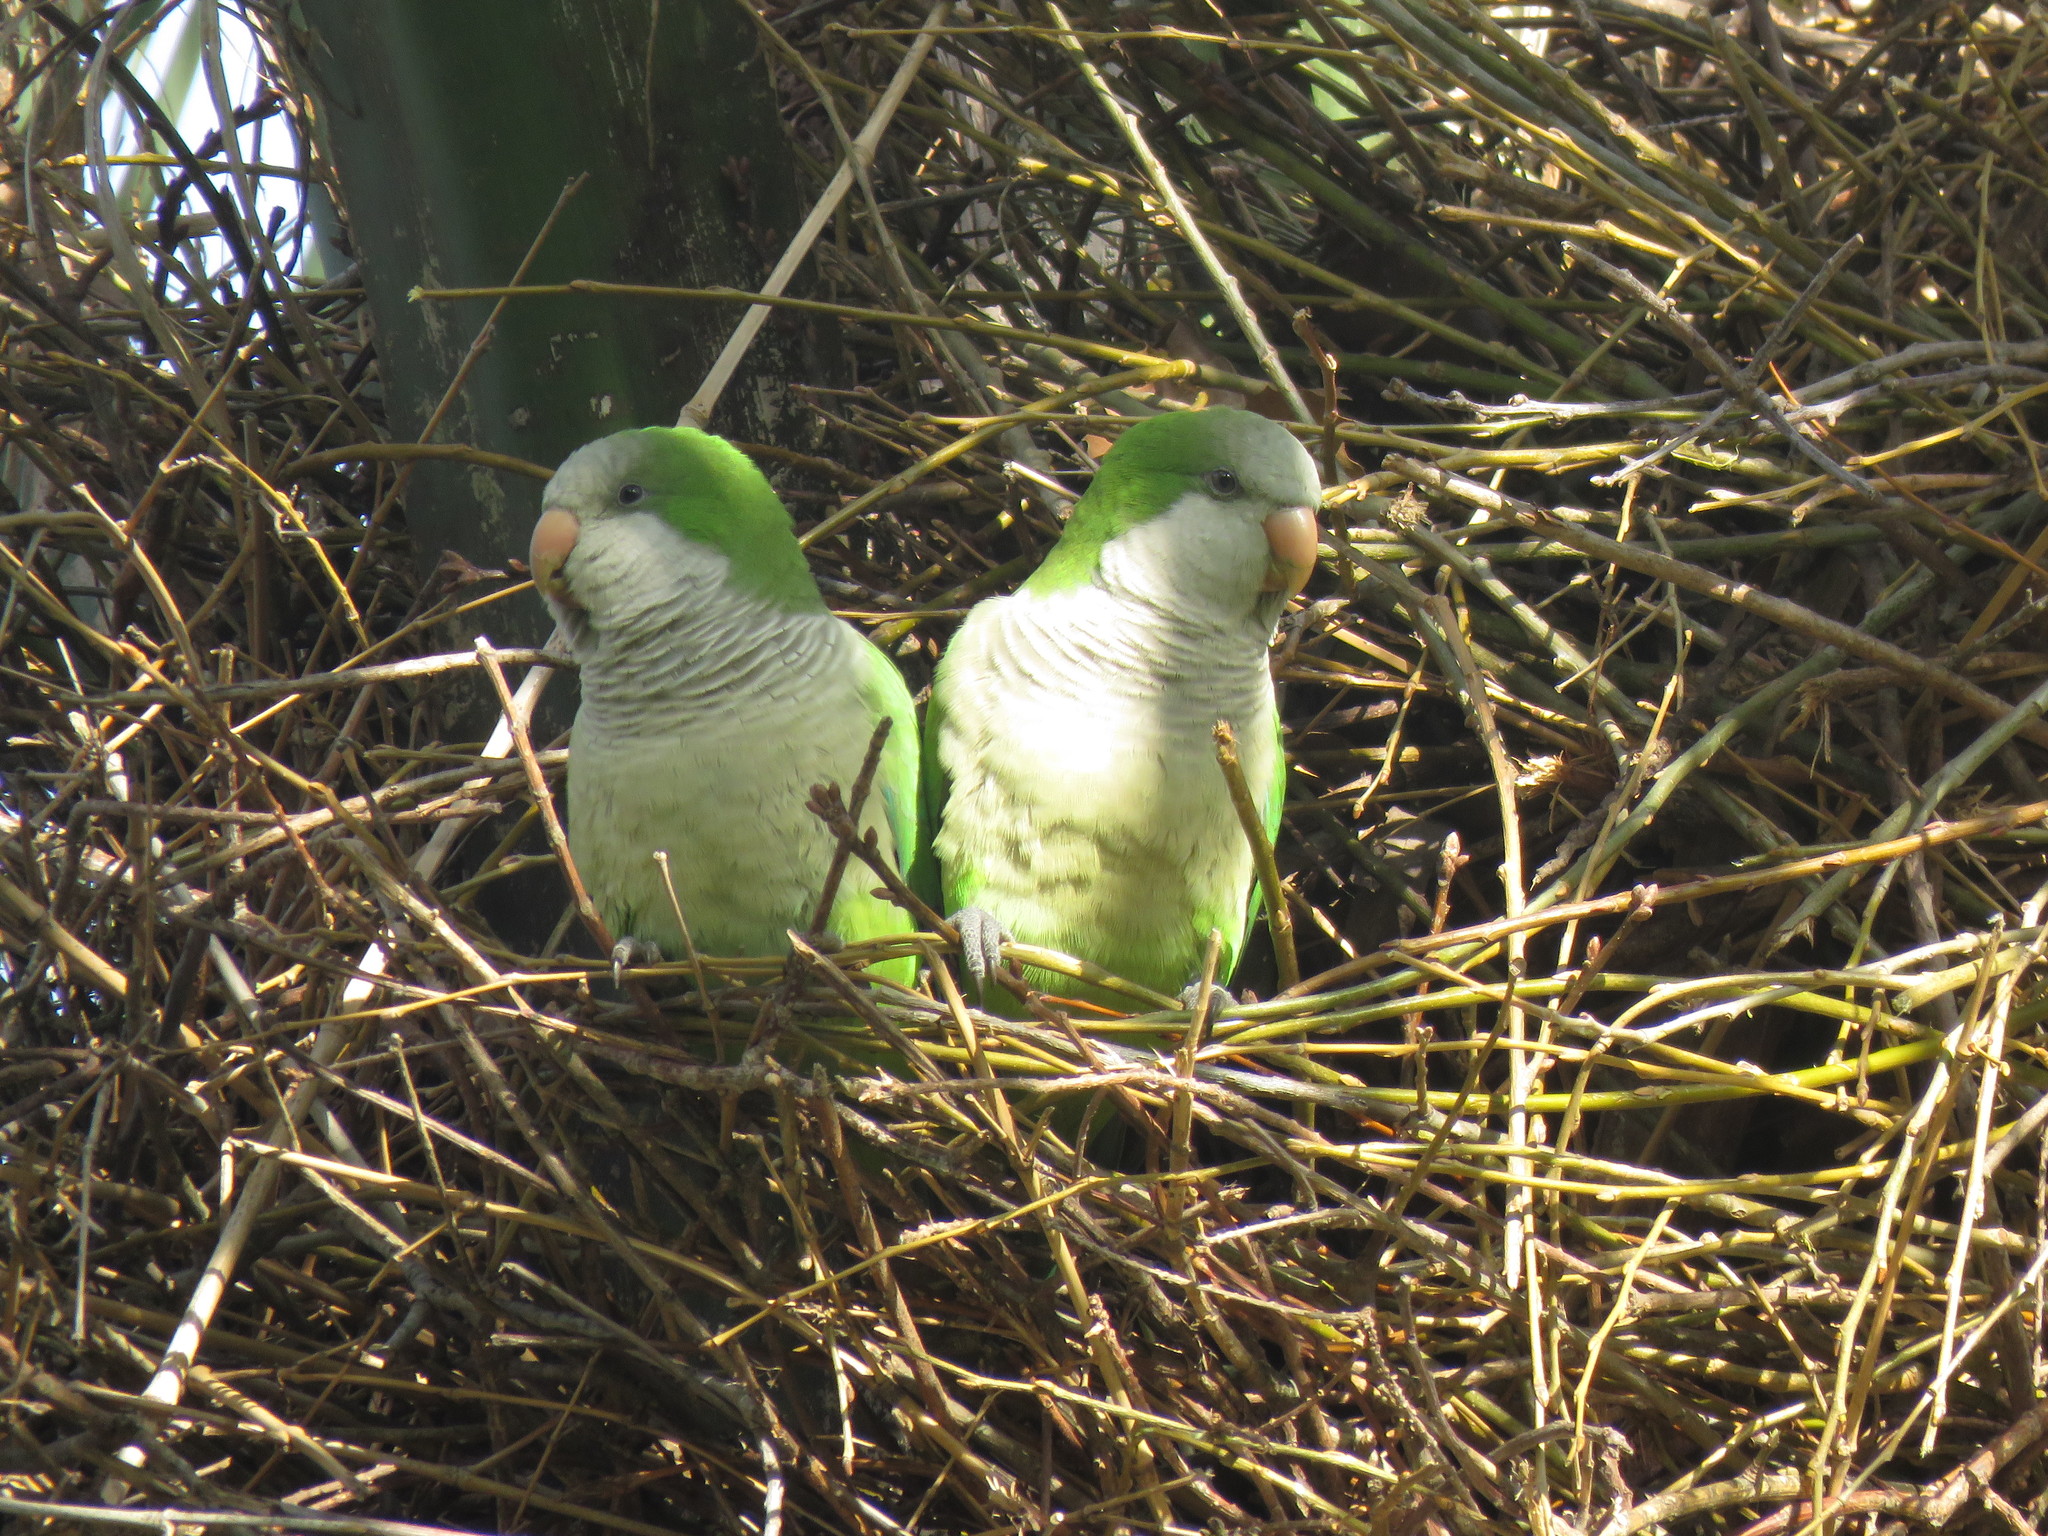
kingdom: Animalia
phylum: Chordata
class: Aves
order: Psittaciformes
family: Psittacidae
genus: Myiopsitta
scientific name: Myiopsitta monachus
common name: Monk parakeet
